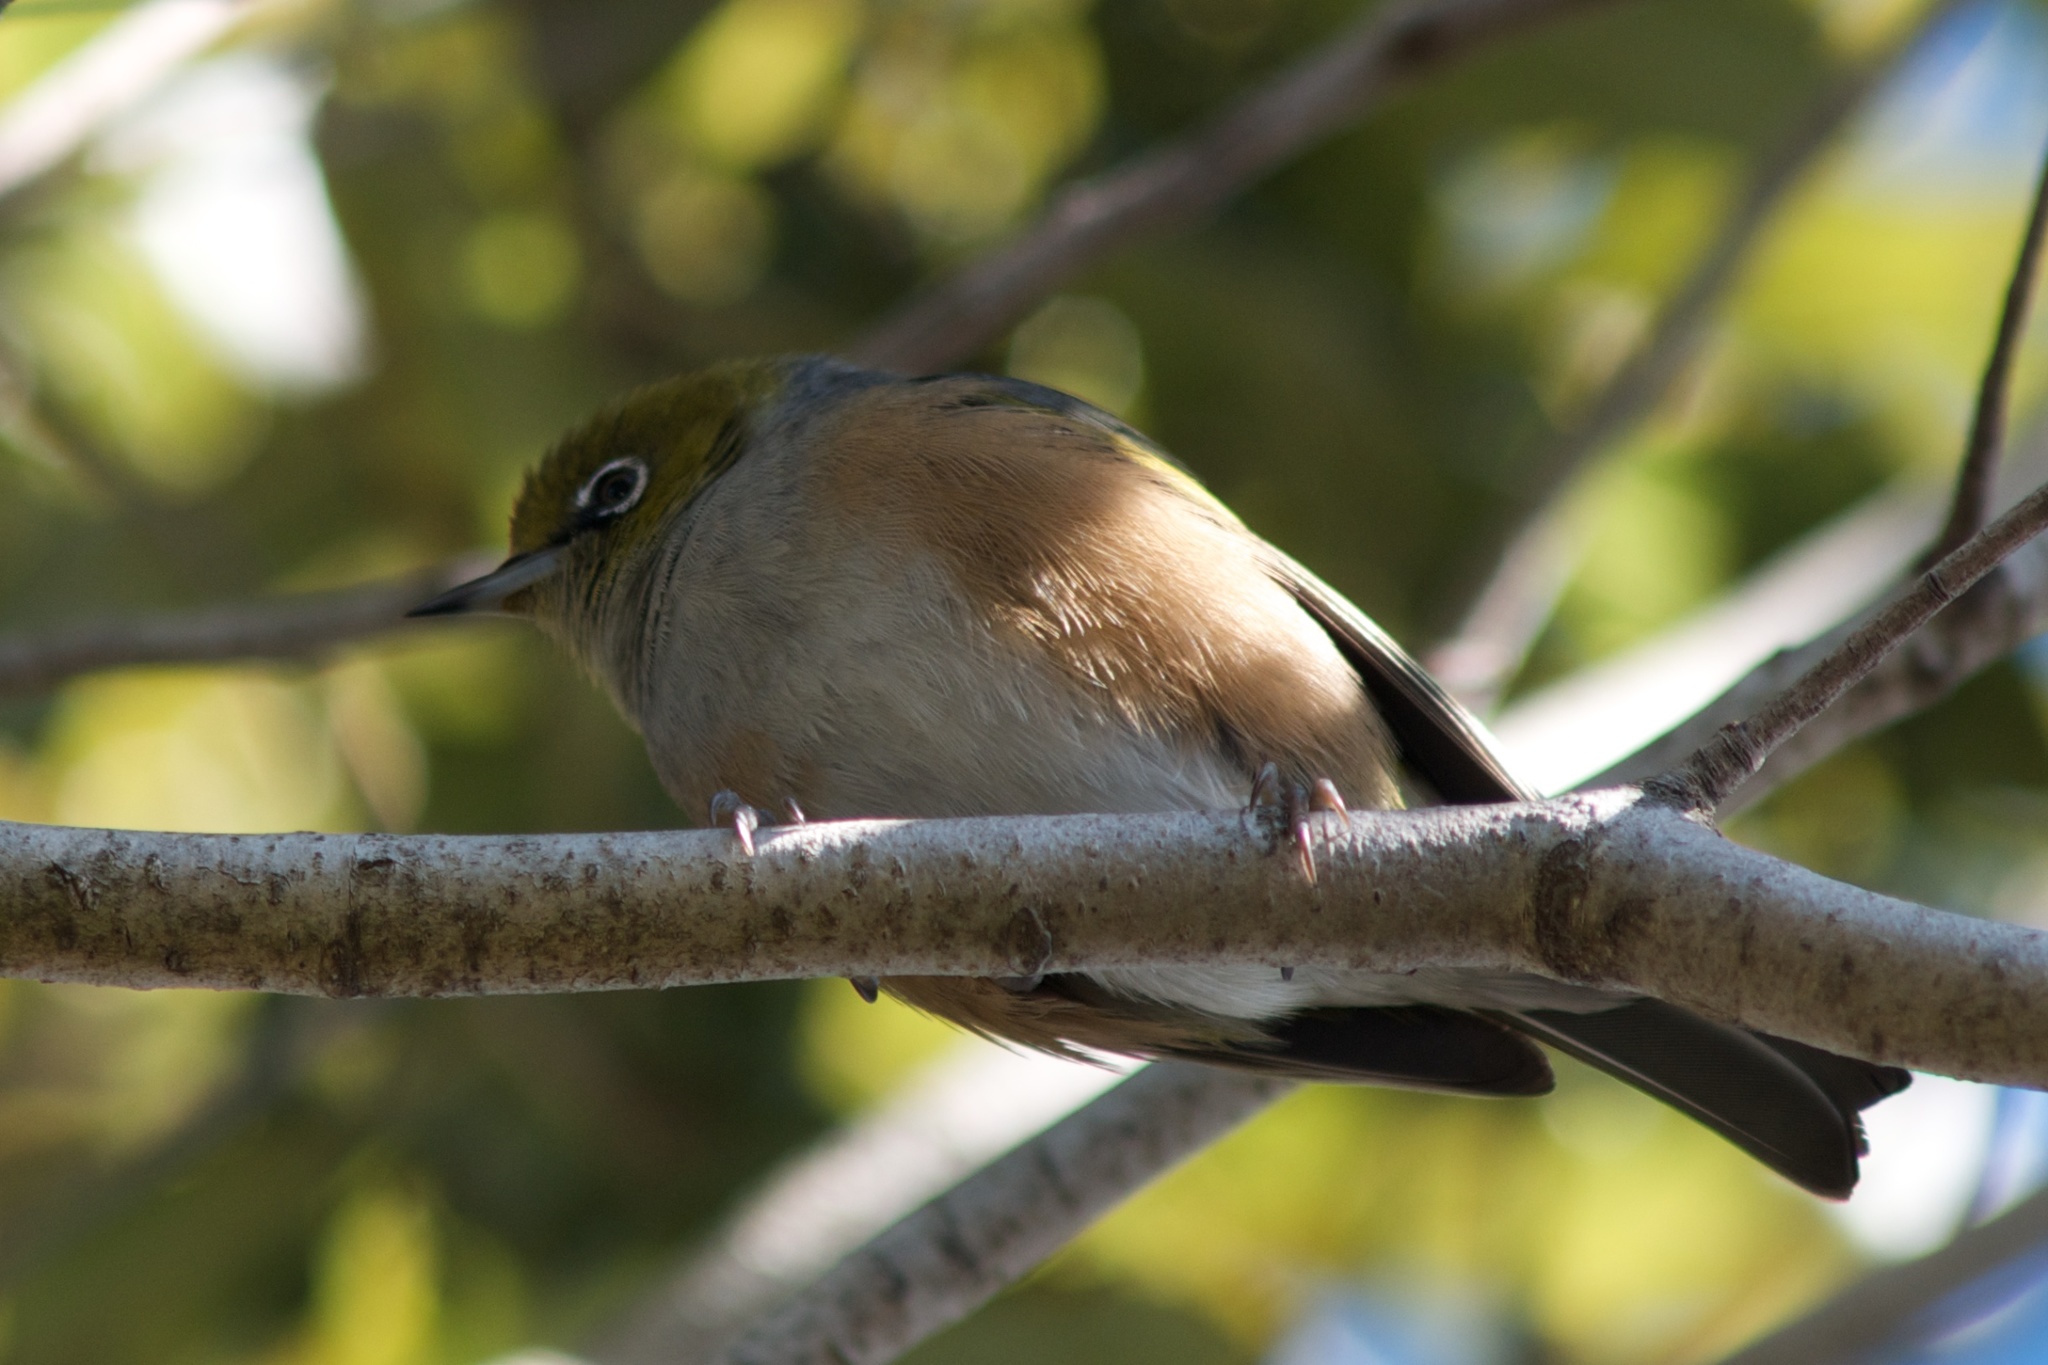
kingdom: Animalia
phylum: Chordata
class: Aves
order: Passeriformes
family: Zosteropidae
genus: Zosterops
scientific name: Zosterops lateralis
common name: Silvereye
